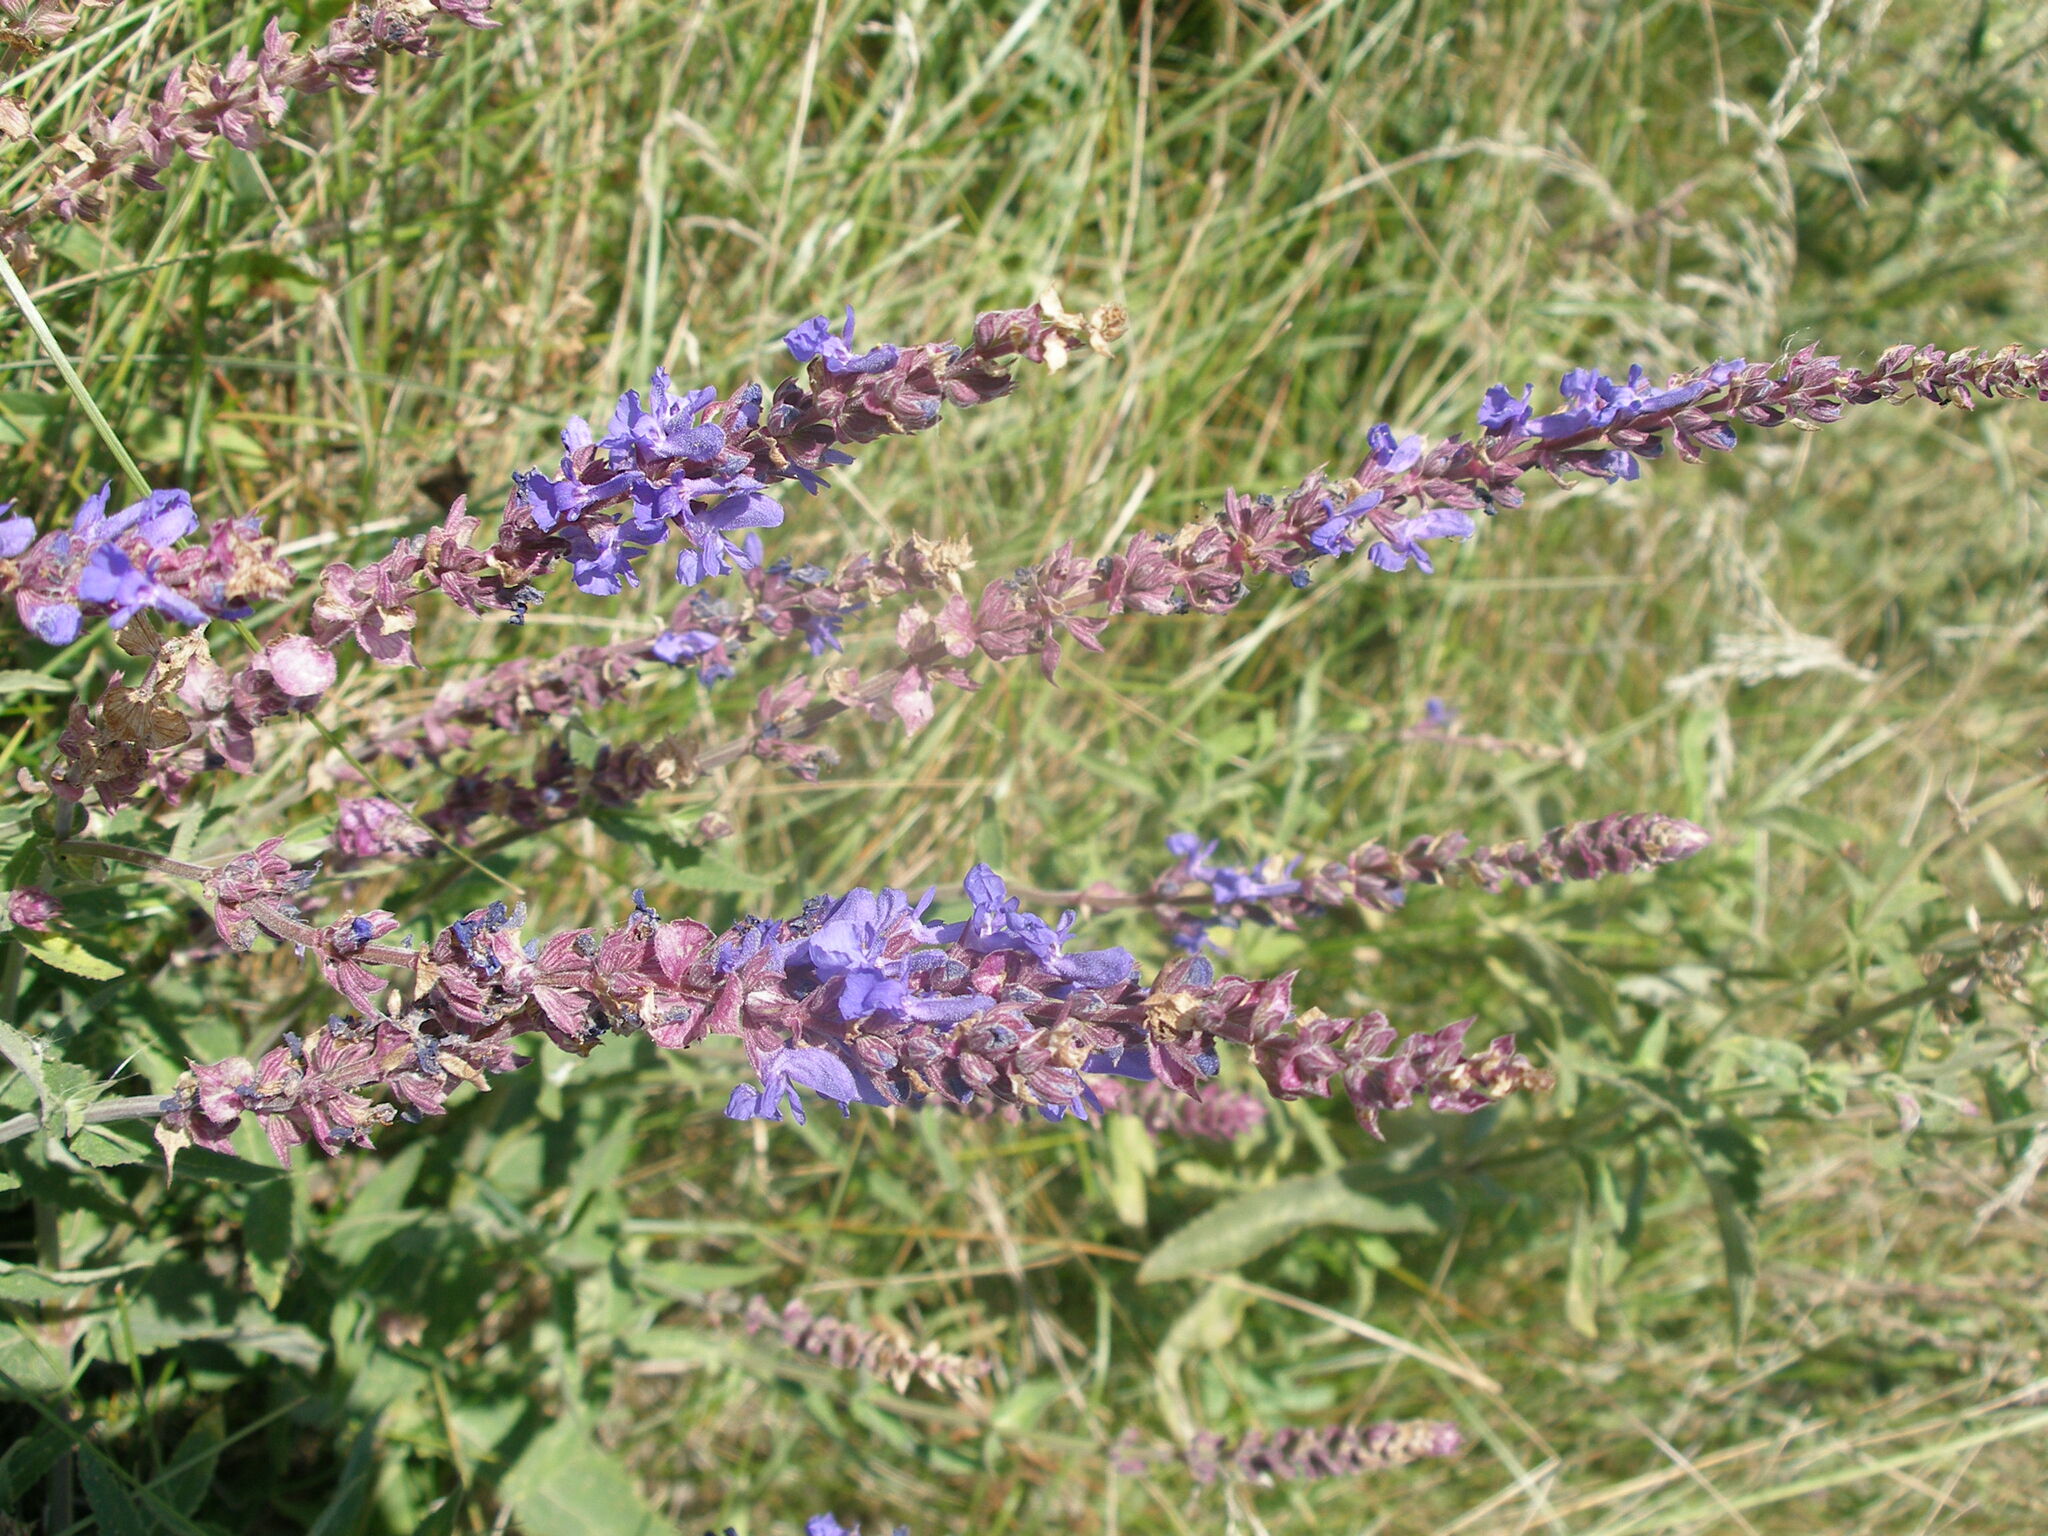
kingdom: Plantae
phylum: Tracheophyta
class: Magnoliopsida
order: Lamiales
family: Lamiaceae
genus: Salvia
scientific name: Salvia nemorosa
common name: Balkan clary
